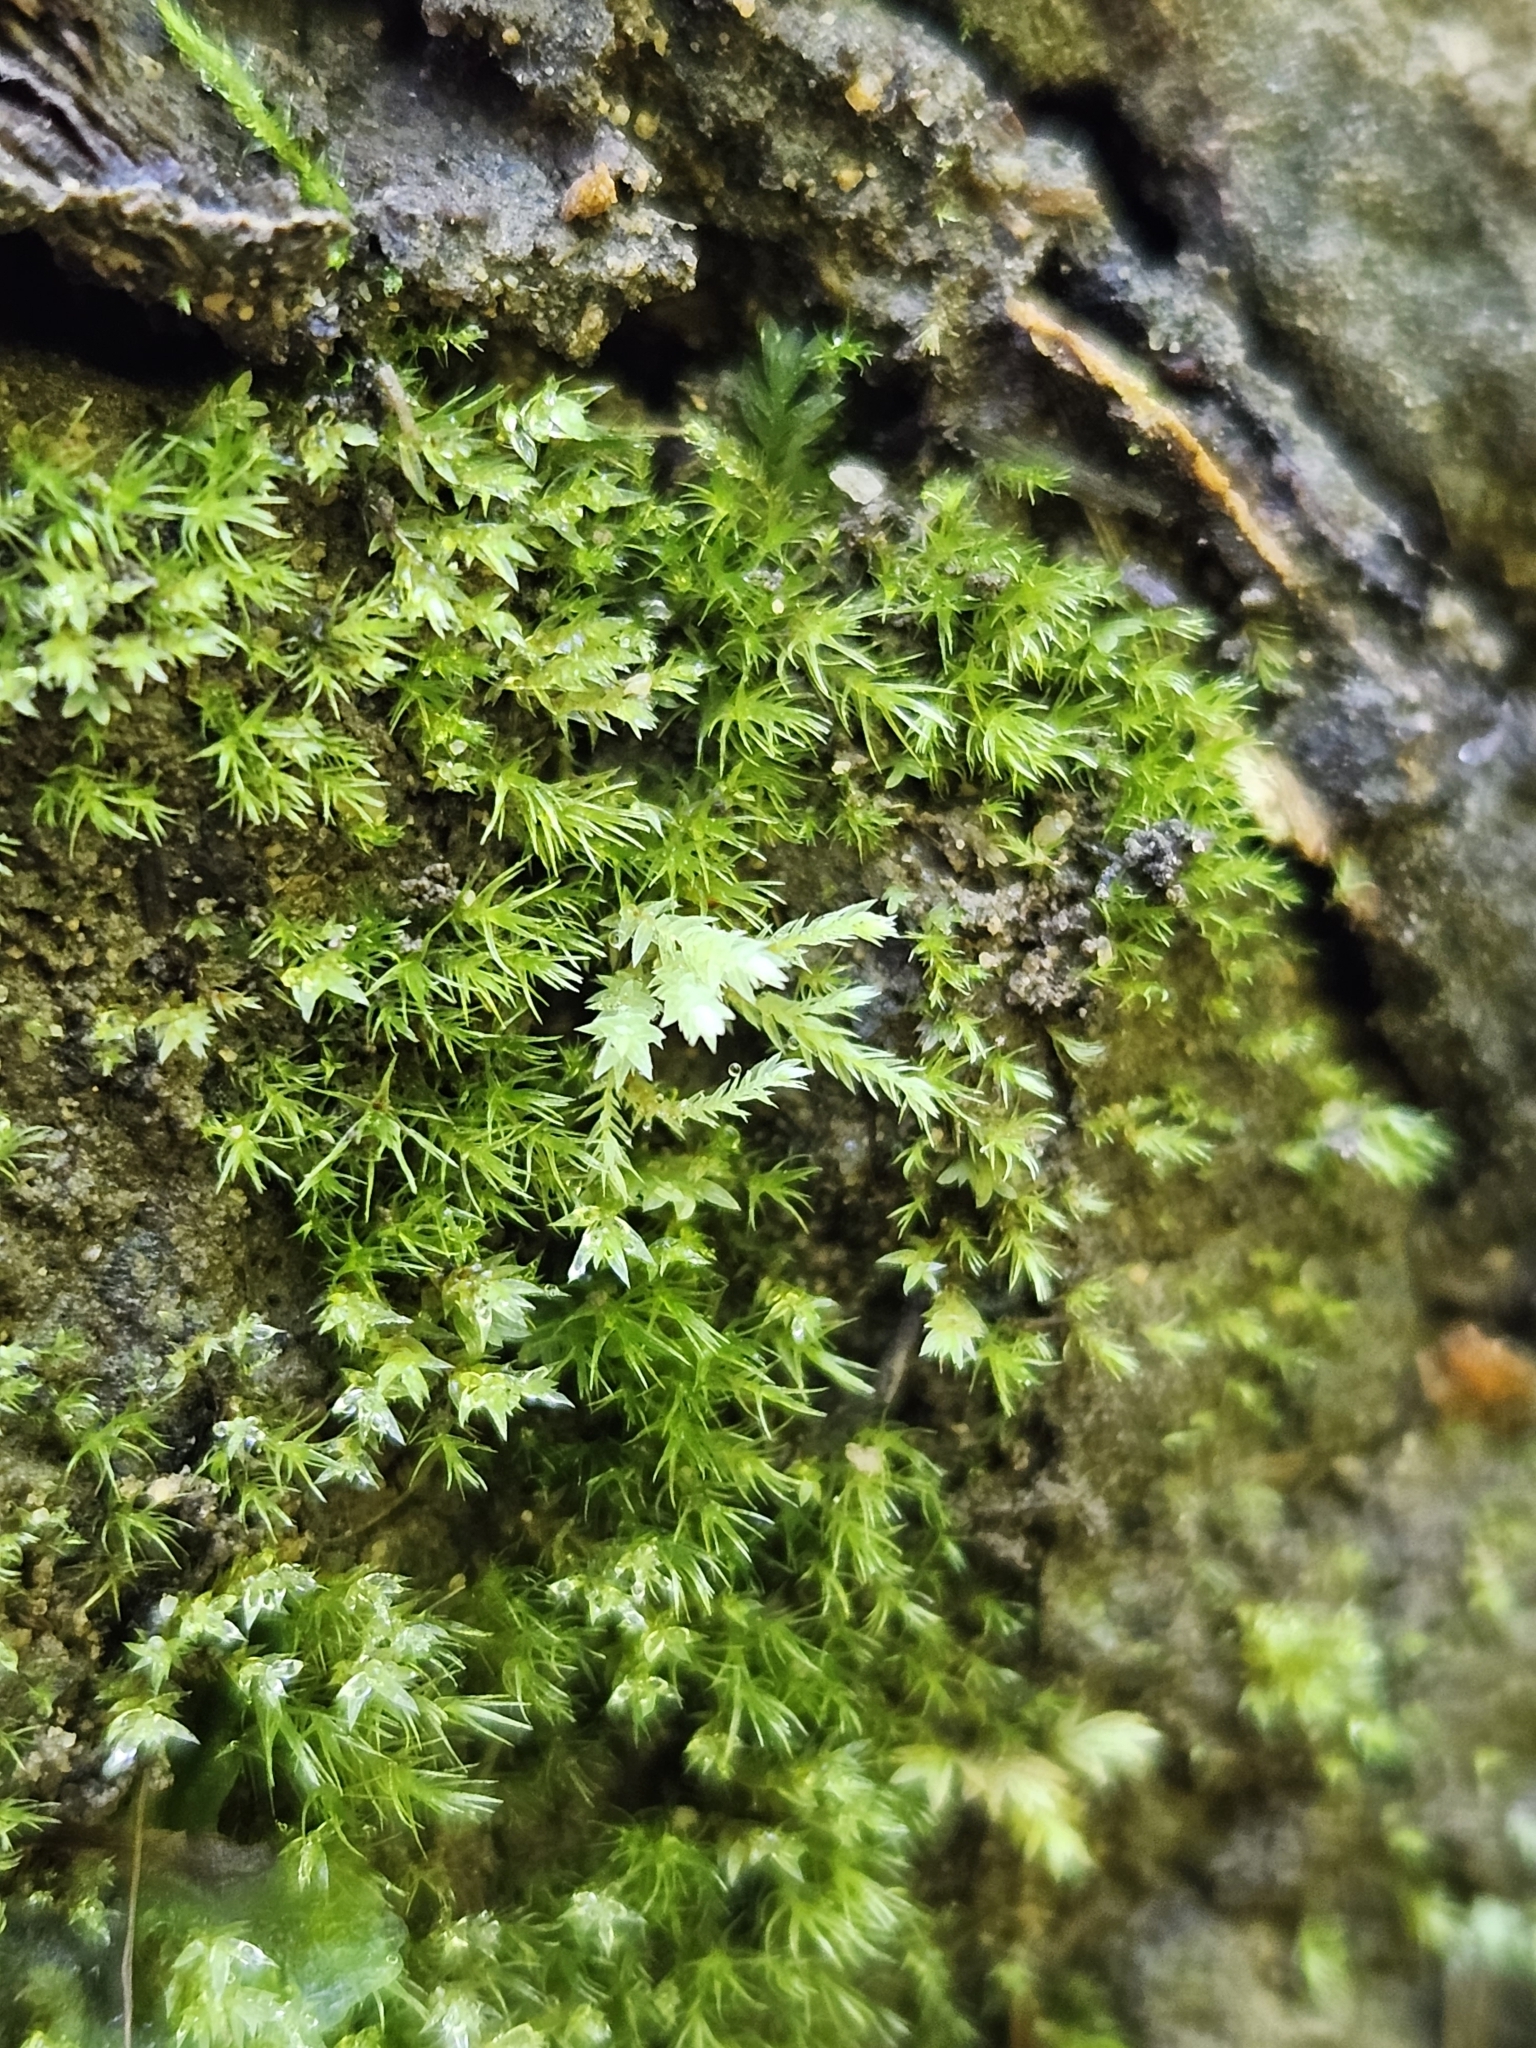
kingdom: Plantae
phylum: Bryophyta
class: Bryopsida
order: Bryales
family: Mniaceae
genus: Pohlia
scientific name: Pohlia wahlenbergii
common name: Wahlenberg's nodding moss
